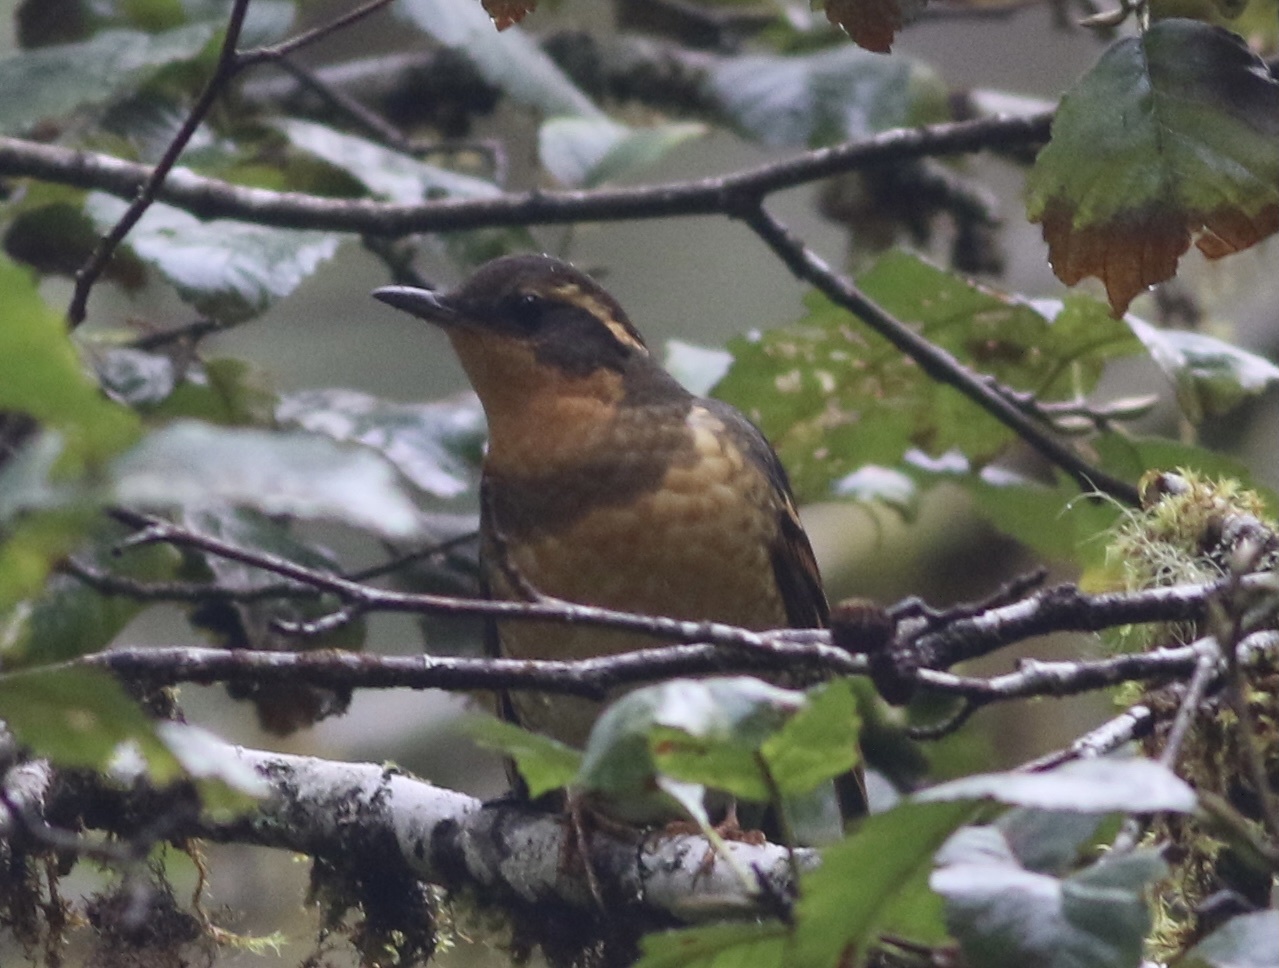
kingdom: Animalia
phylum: Chordata
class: Aves
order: Passeriformes
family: Turdidae
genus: Ixoreus
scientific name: Ixoreus naevius
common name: Varied thrush
